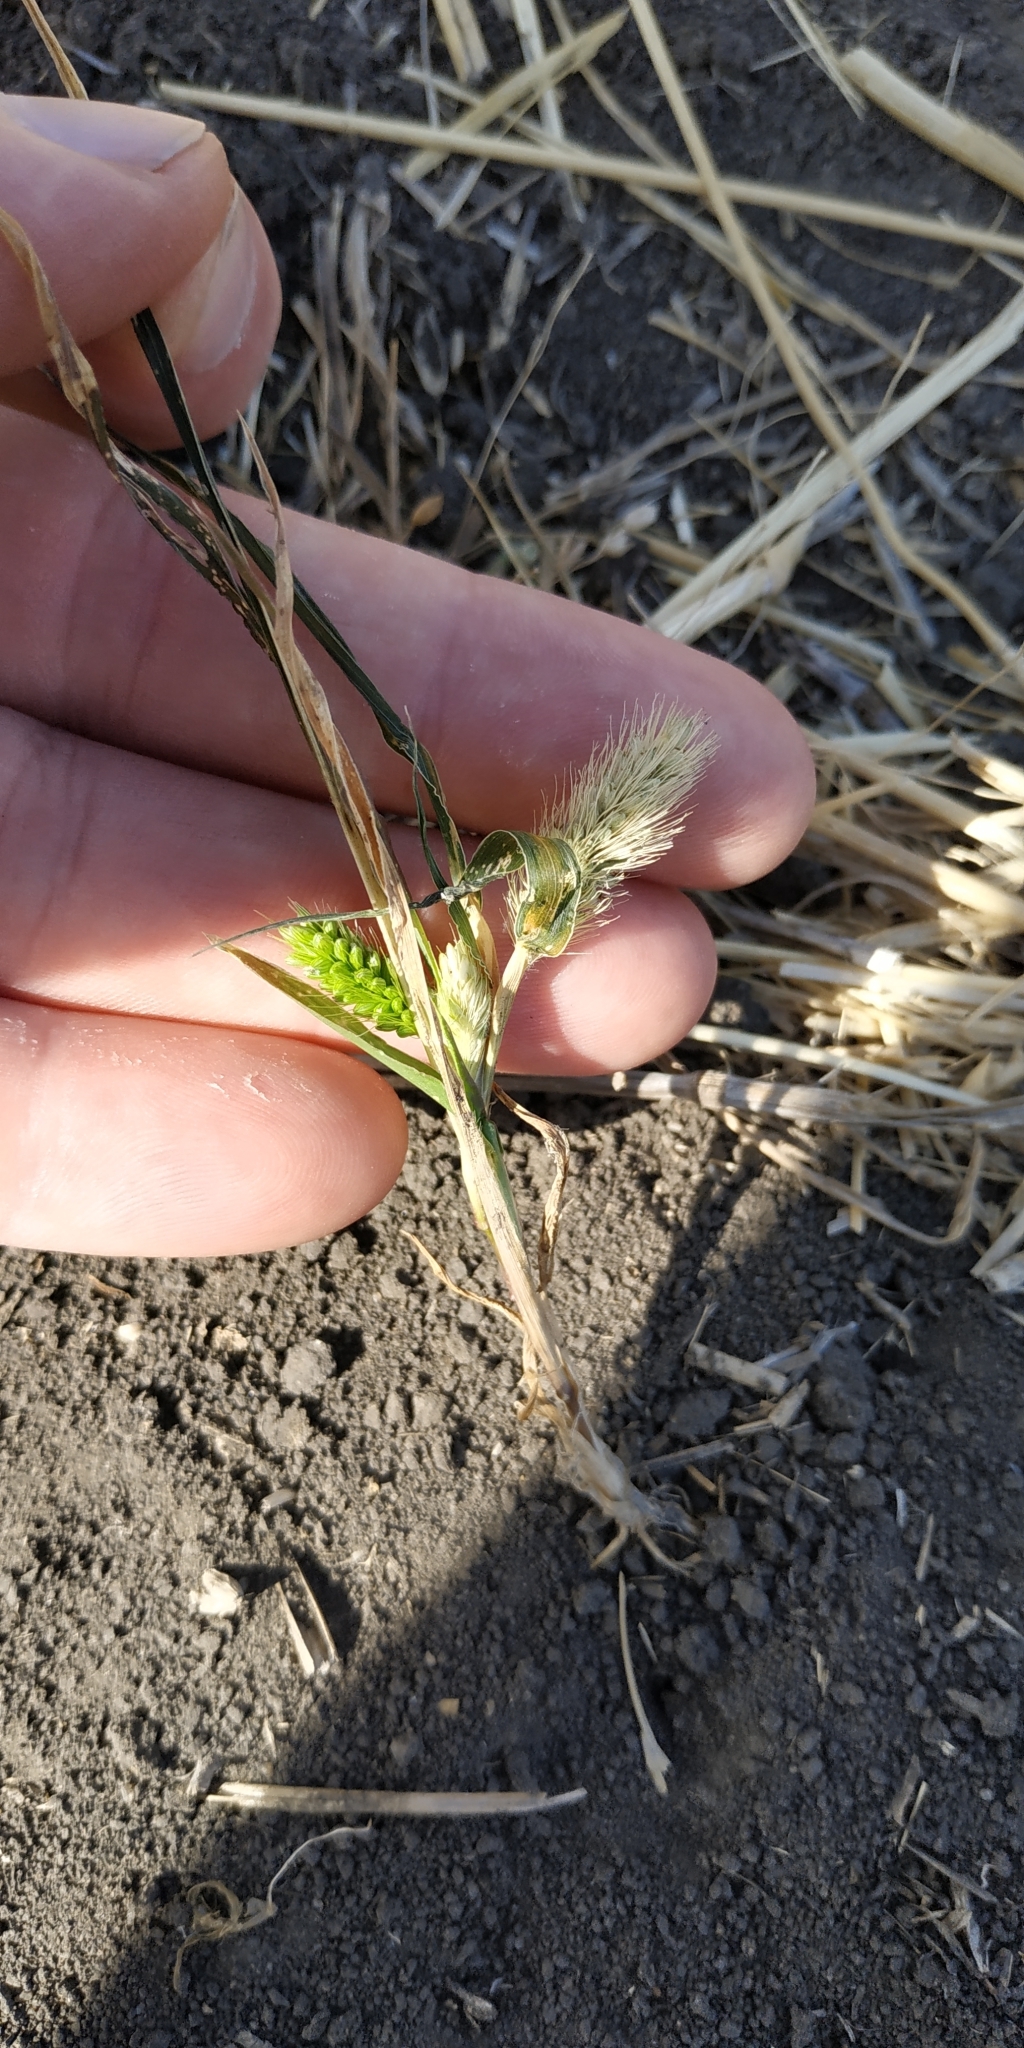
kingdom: Plantae
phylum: Tracheophyta
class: Liliopsida
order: Poales
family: Poaceae
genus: Setaria
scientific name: Setaria viridis
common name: Green bristlegrass
